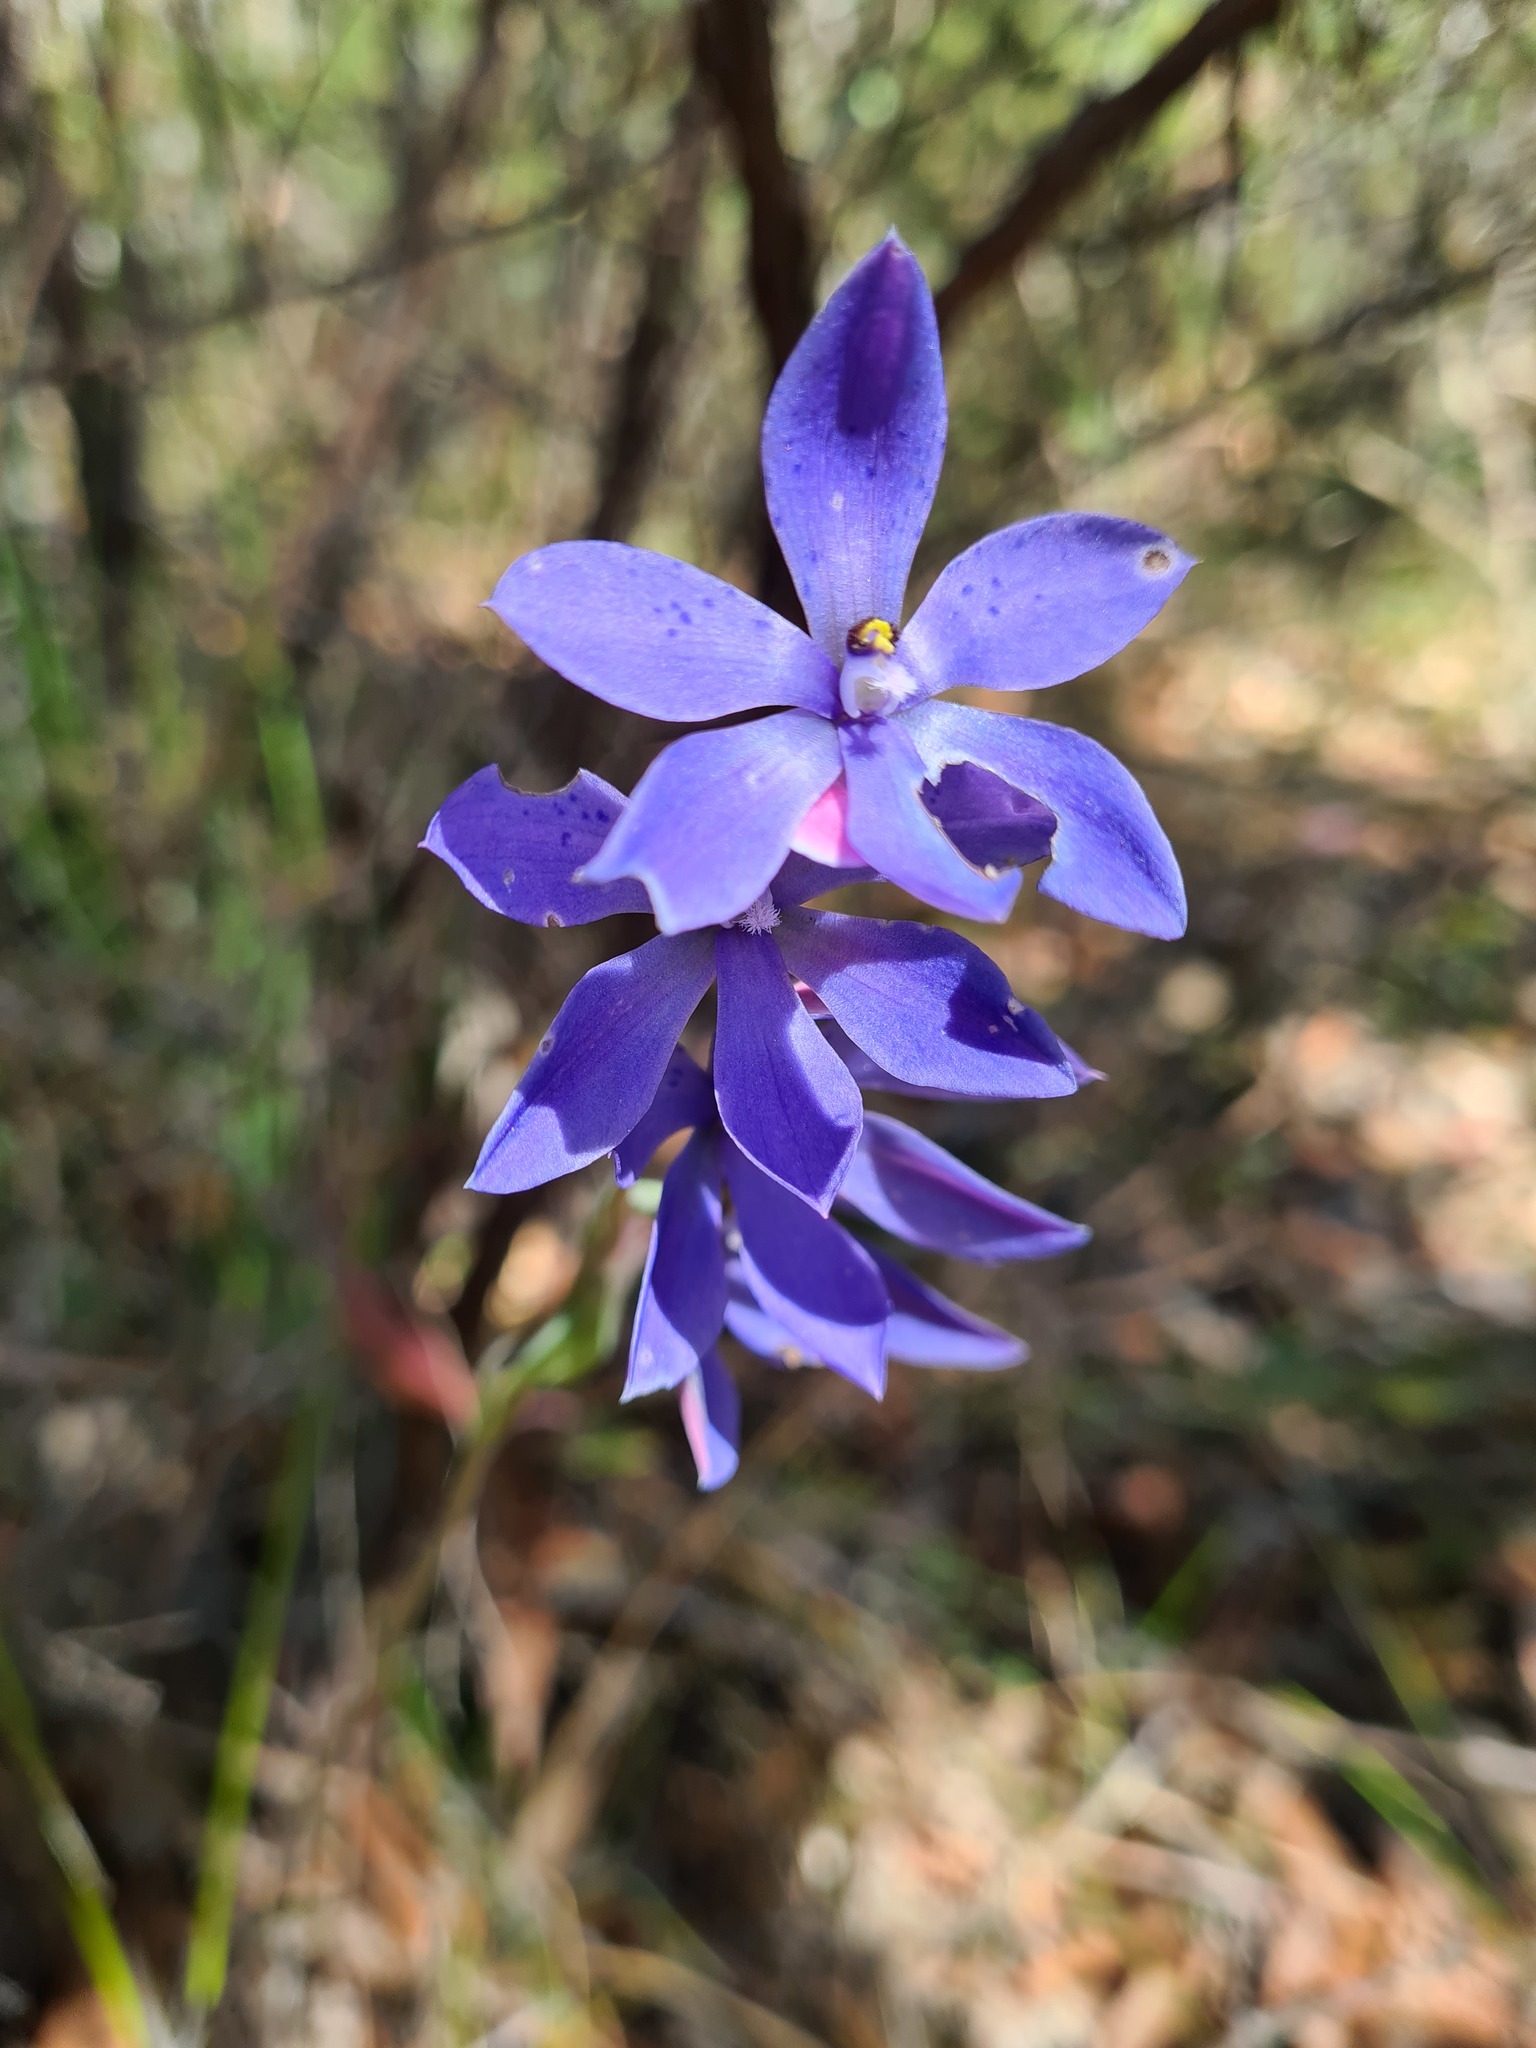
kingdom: Plantae
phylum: Tracheophyta
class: Liliopsida
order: Asparagales
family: Orchidaceae
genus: Thelymitra
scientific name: Thelymitra ixioides
